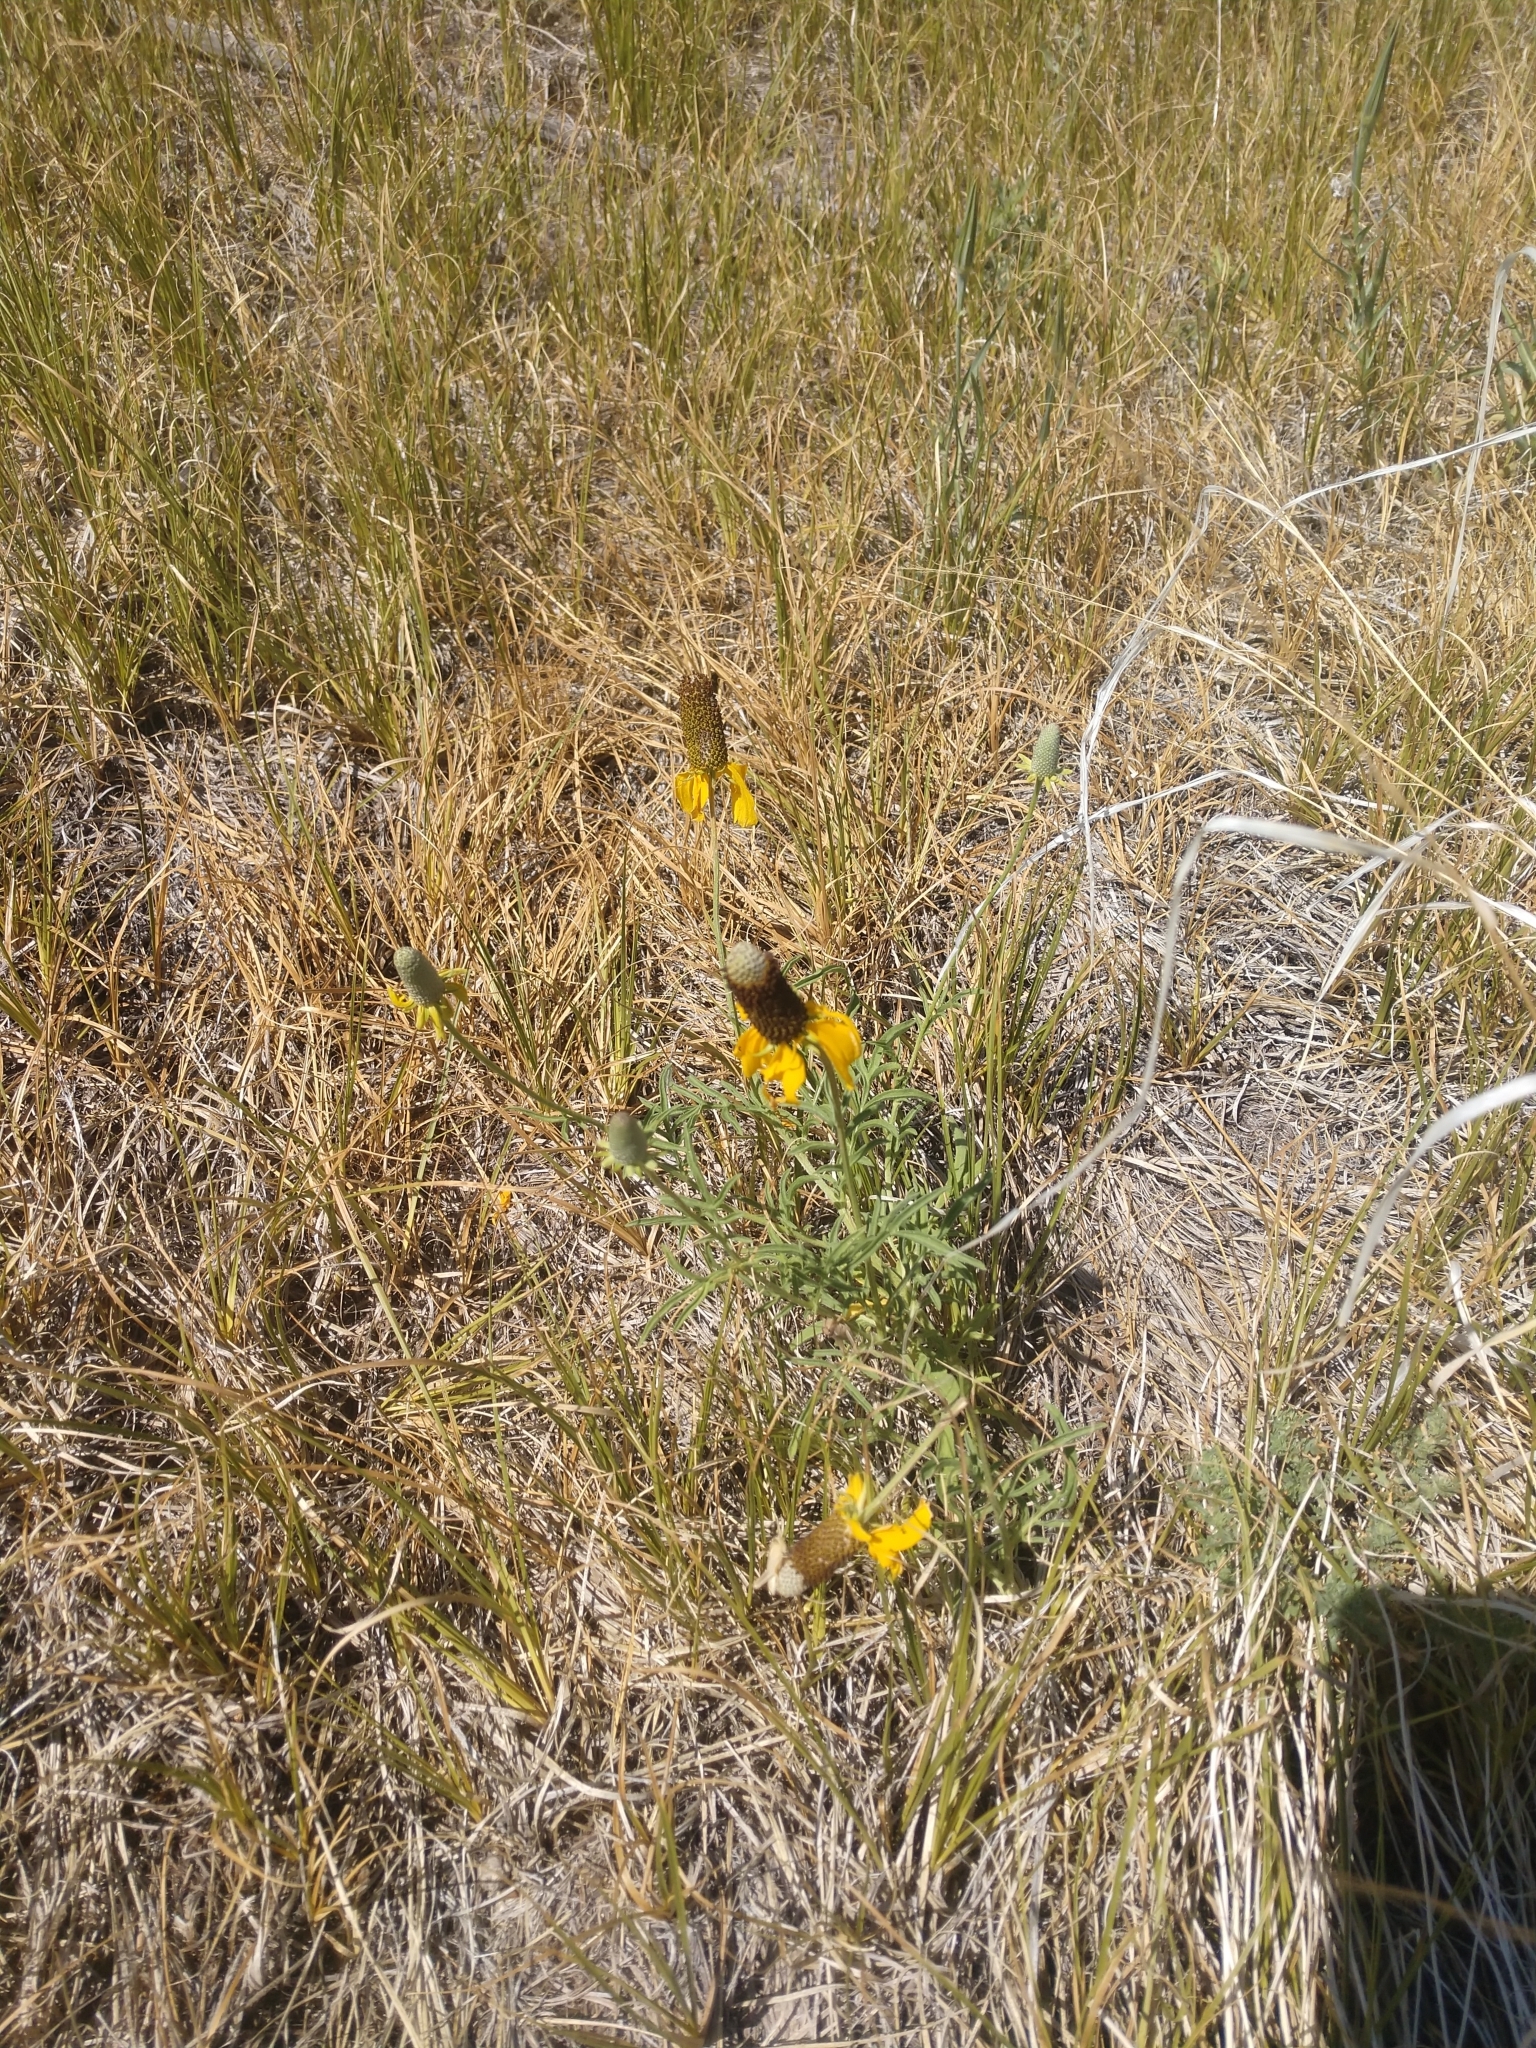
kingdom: Plantae
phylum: Tracheophyta
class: Magnoliopsida
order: Asterales
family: Asteraceae
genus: Ratibida
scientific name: Ratibida columnifera
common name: Prairie coneflower
